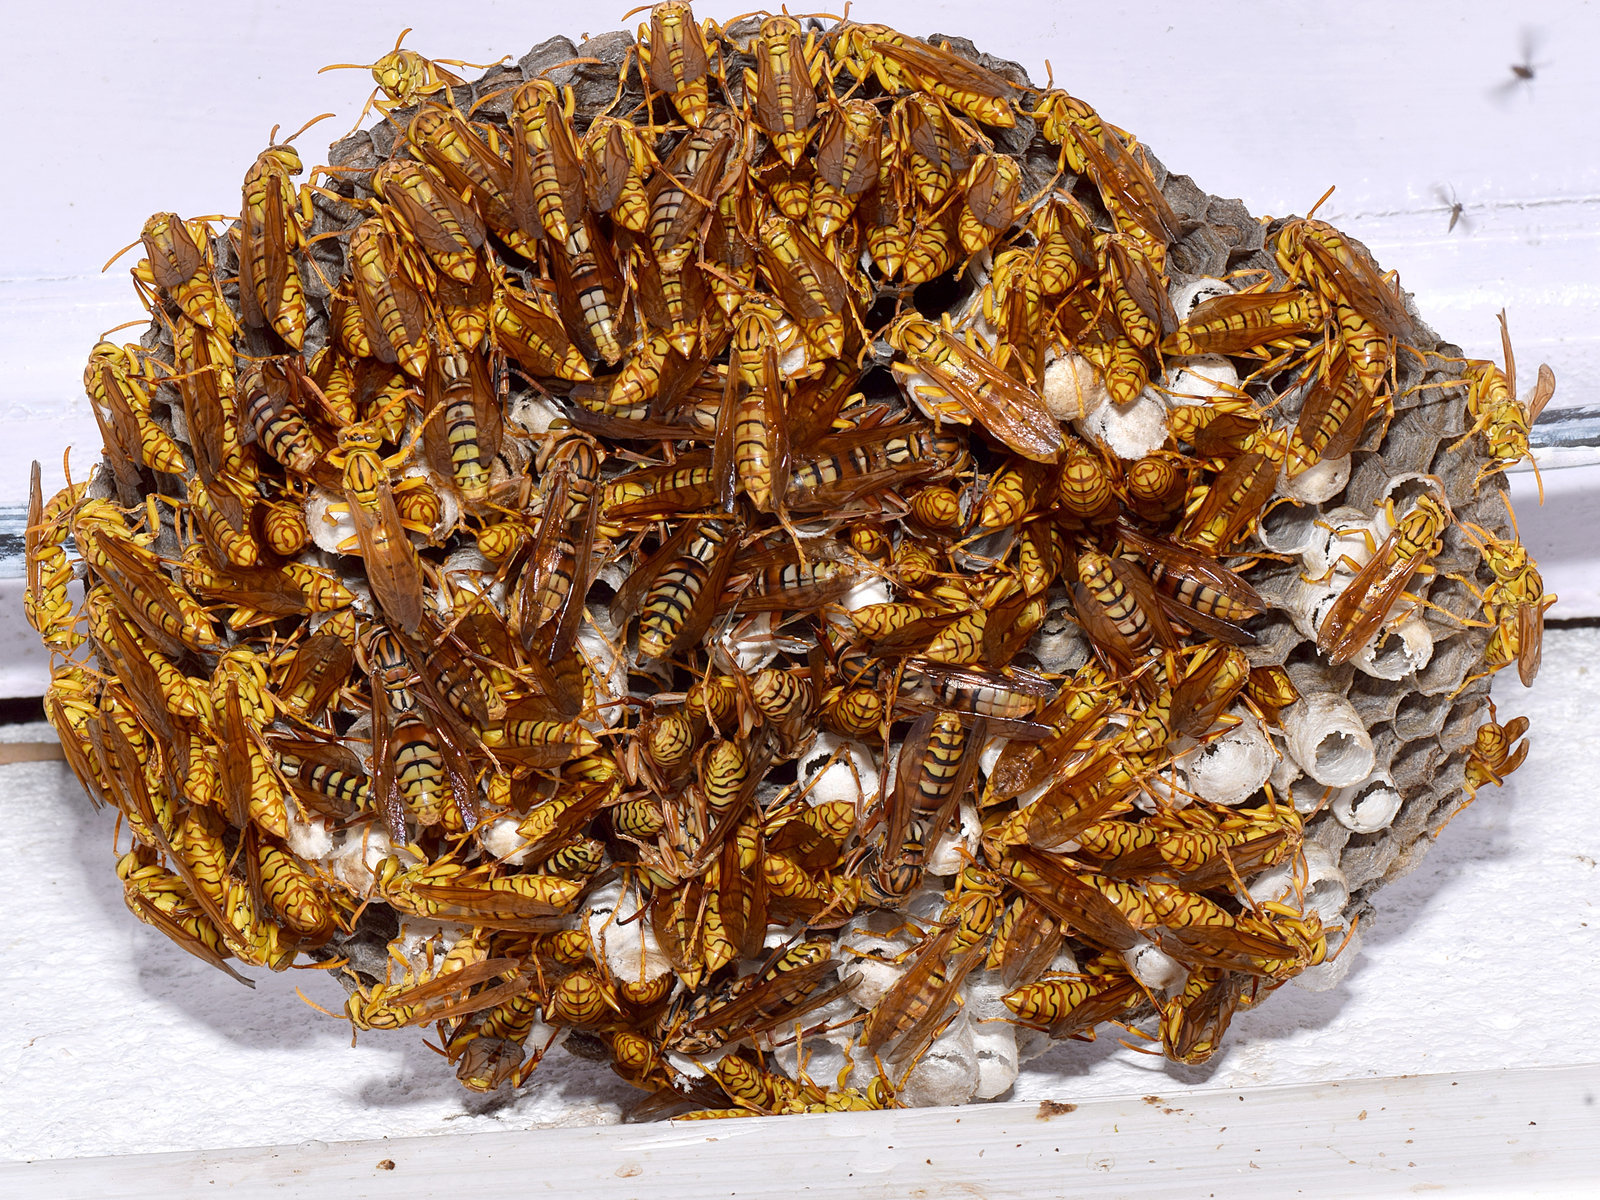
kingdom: Animalia
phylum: Arthropoda
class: Insecta
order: Hymenoptera
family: Eumenidae
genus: Polistes
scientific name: Polistes olivaceus
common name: Paper wasp
